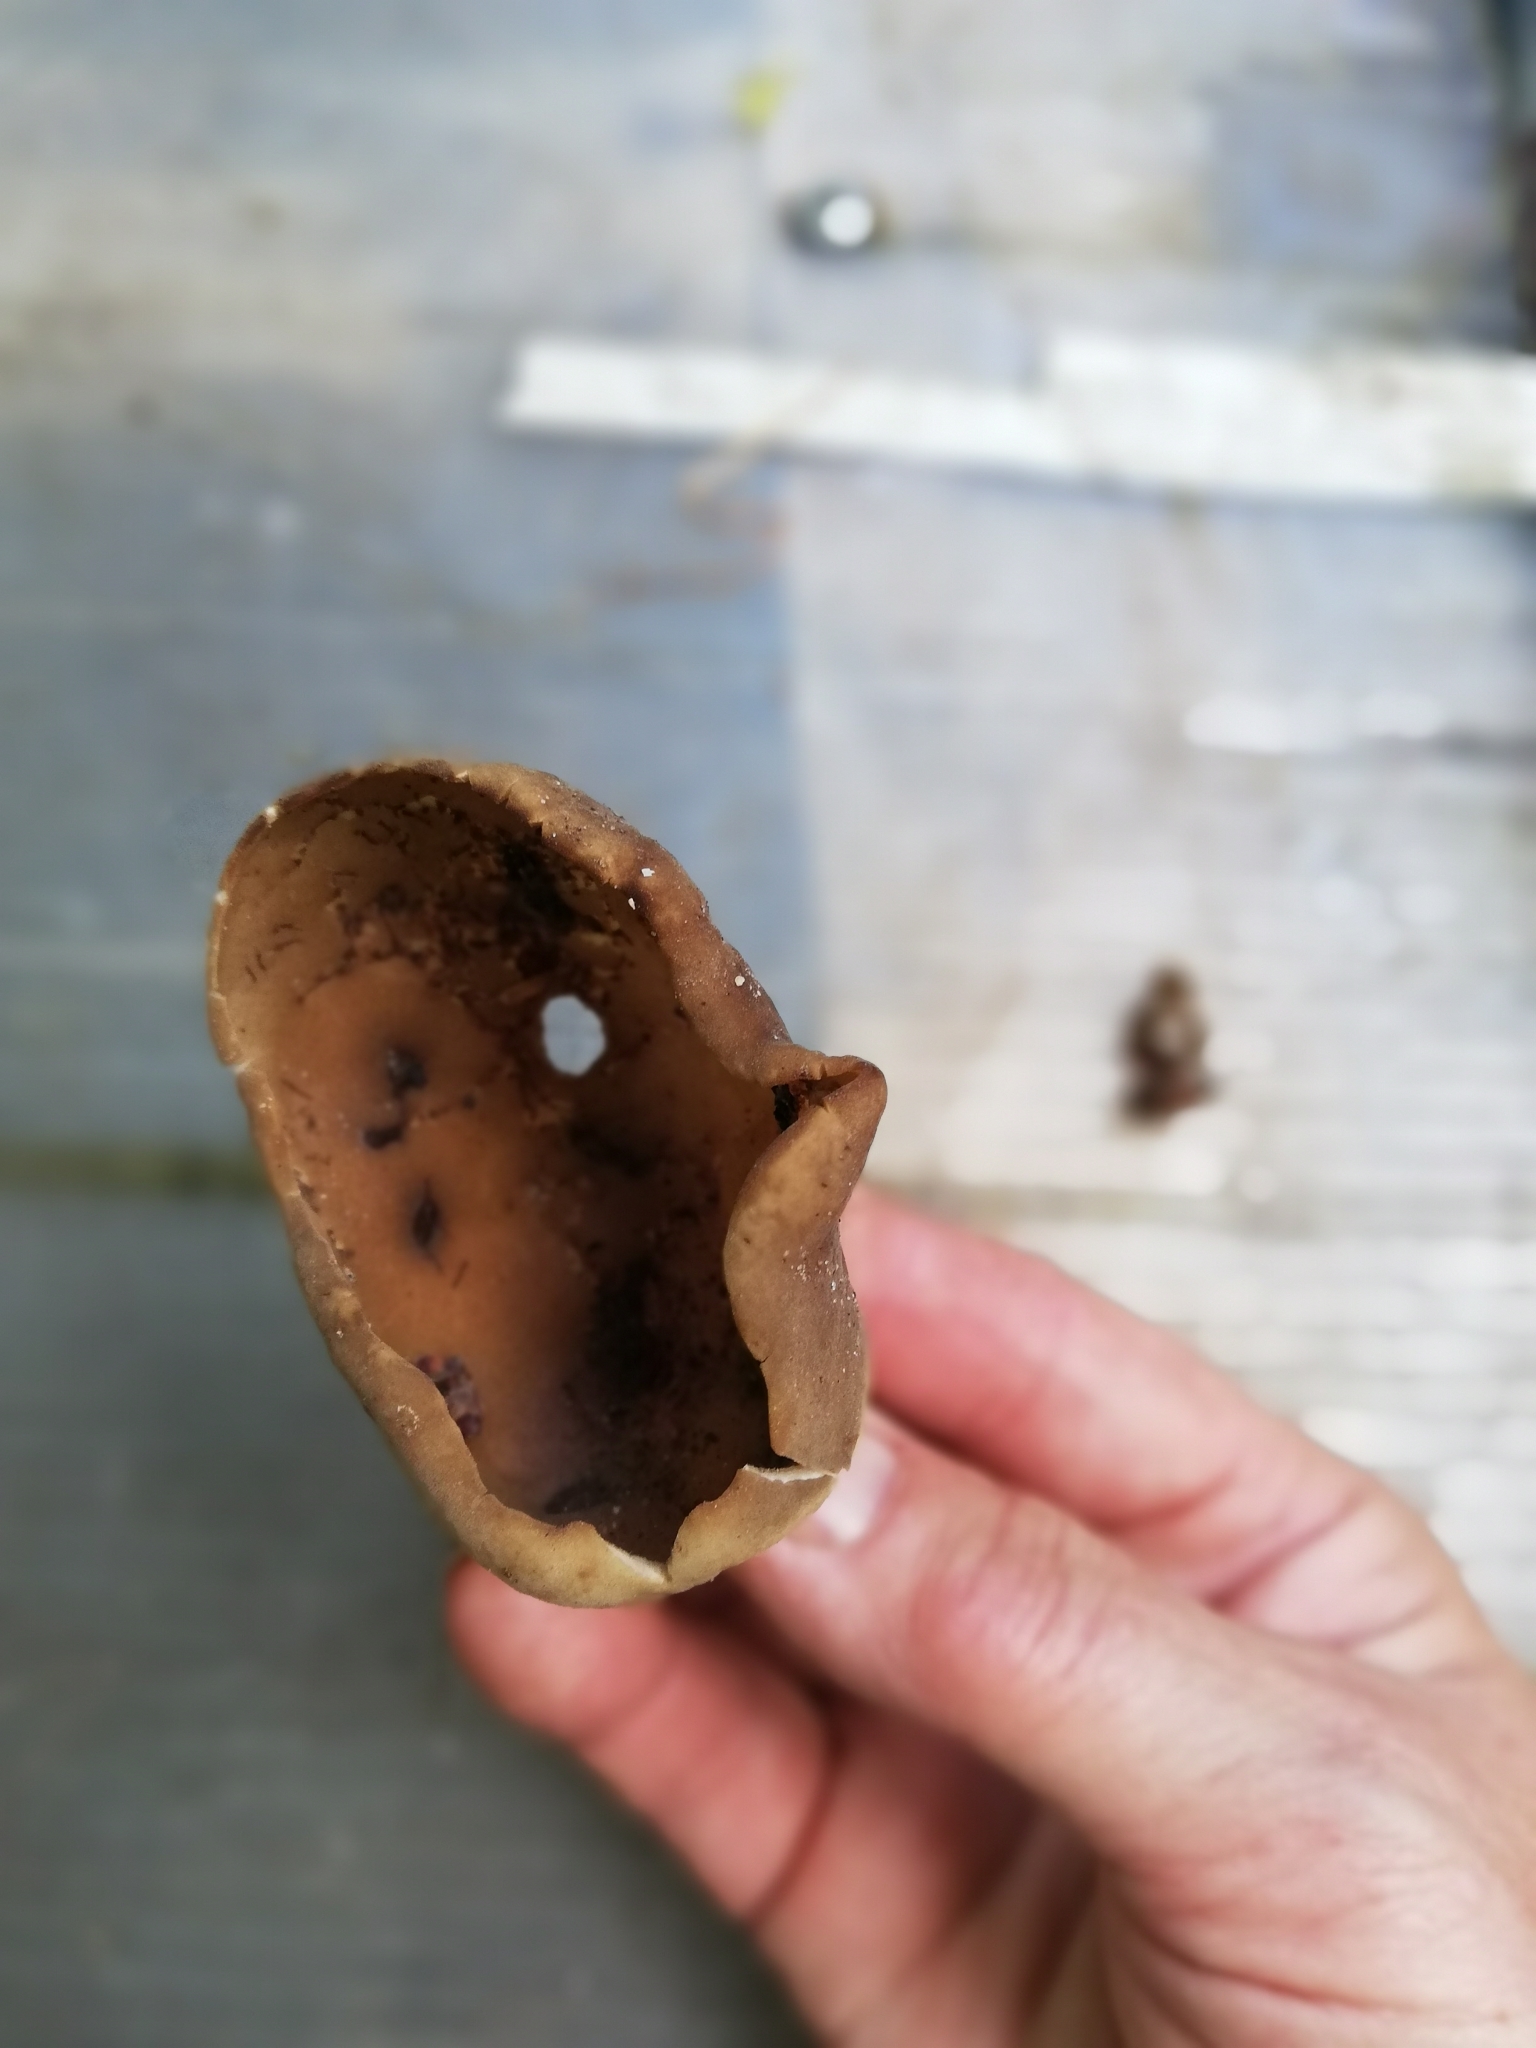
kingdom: Fungi
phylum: Ascomycota
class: Pezizomycetes
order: Pezizales
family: Helvellaceae
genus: Helvella
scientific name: Helvella acetabulum
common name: Vinegar cup
